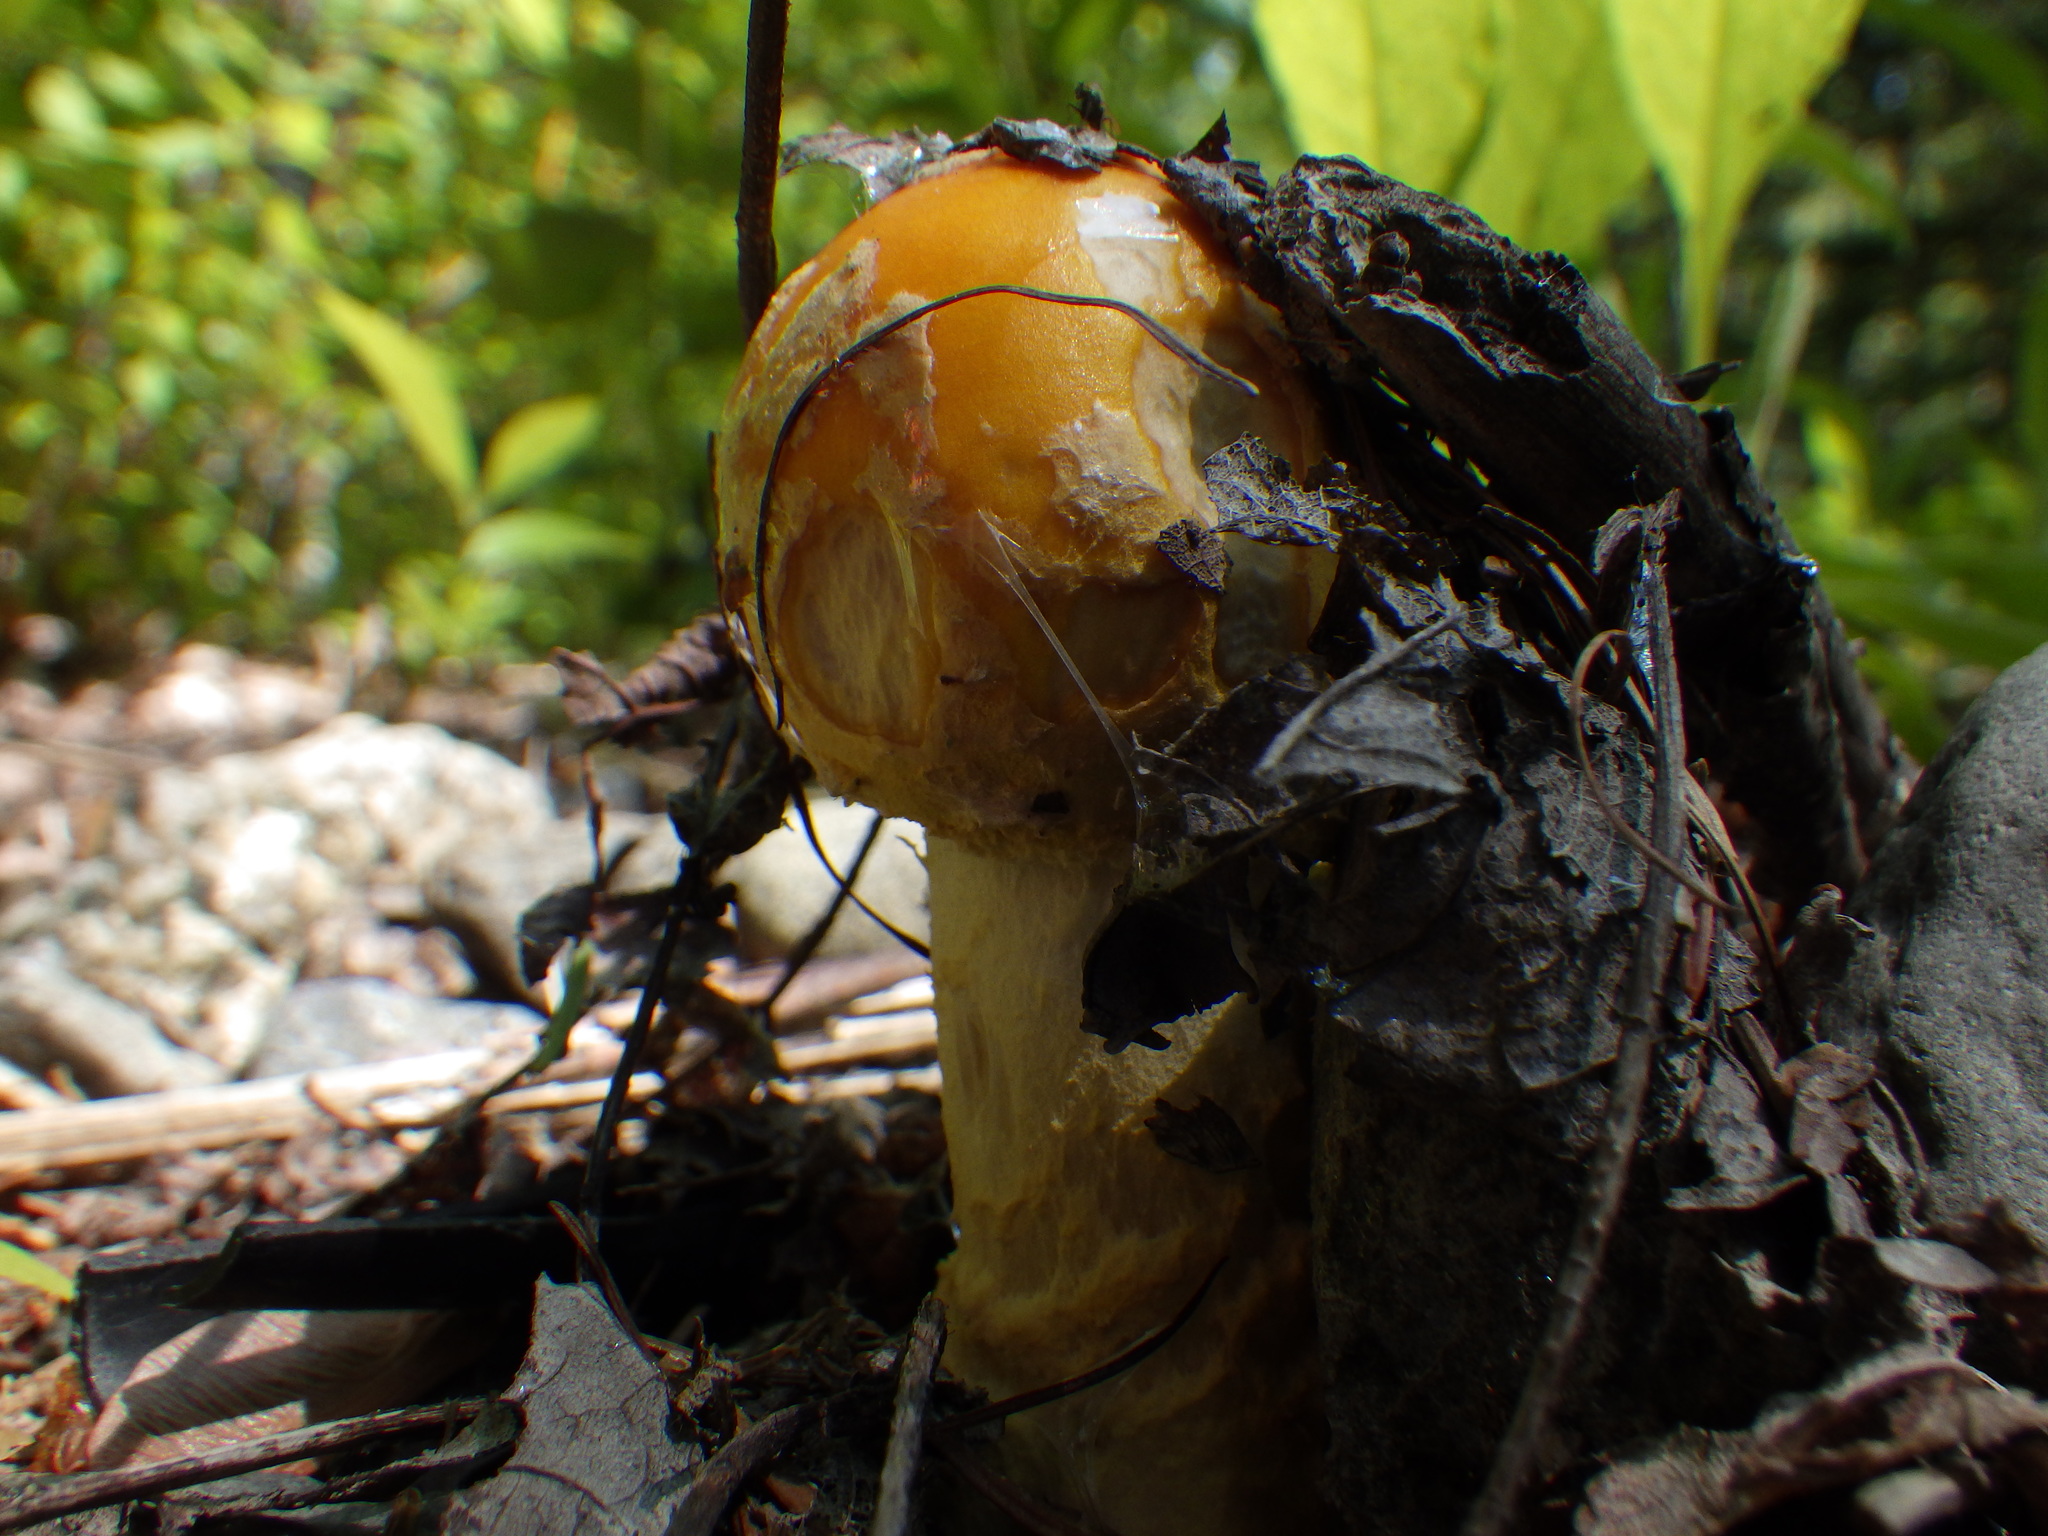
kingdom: Fungi
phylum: Basidiomycota
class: Agaricomycetes
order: Agaricales
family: Amanitaceae
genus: Amanita
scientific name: Amanita muscaria
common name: Fly agaric
